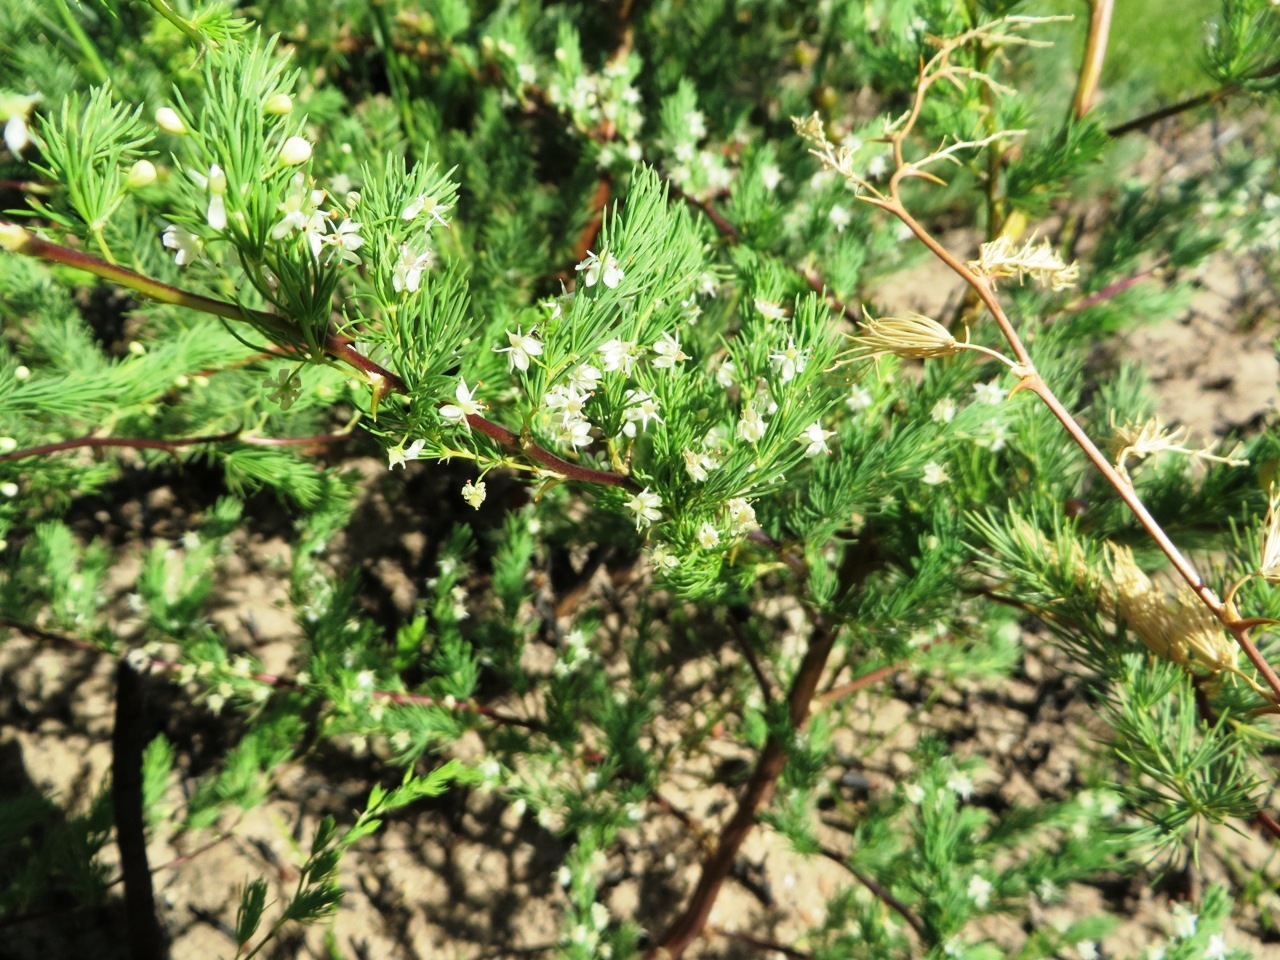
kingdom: Plantae
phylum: Tracheophyta
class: Liliopsida
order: Asparagales
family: Asparagaceae
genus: Asparagus
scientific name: Asparagus rubicundus
